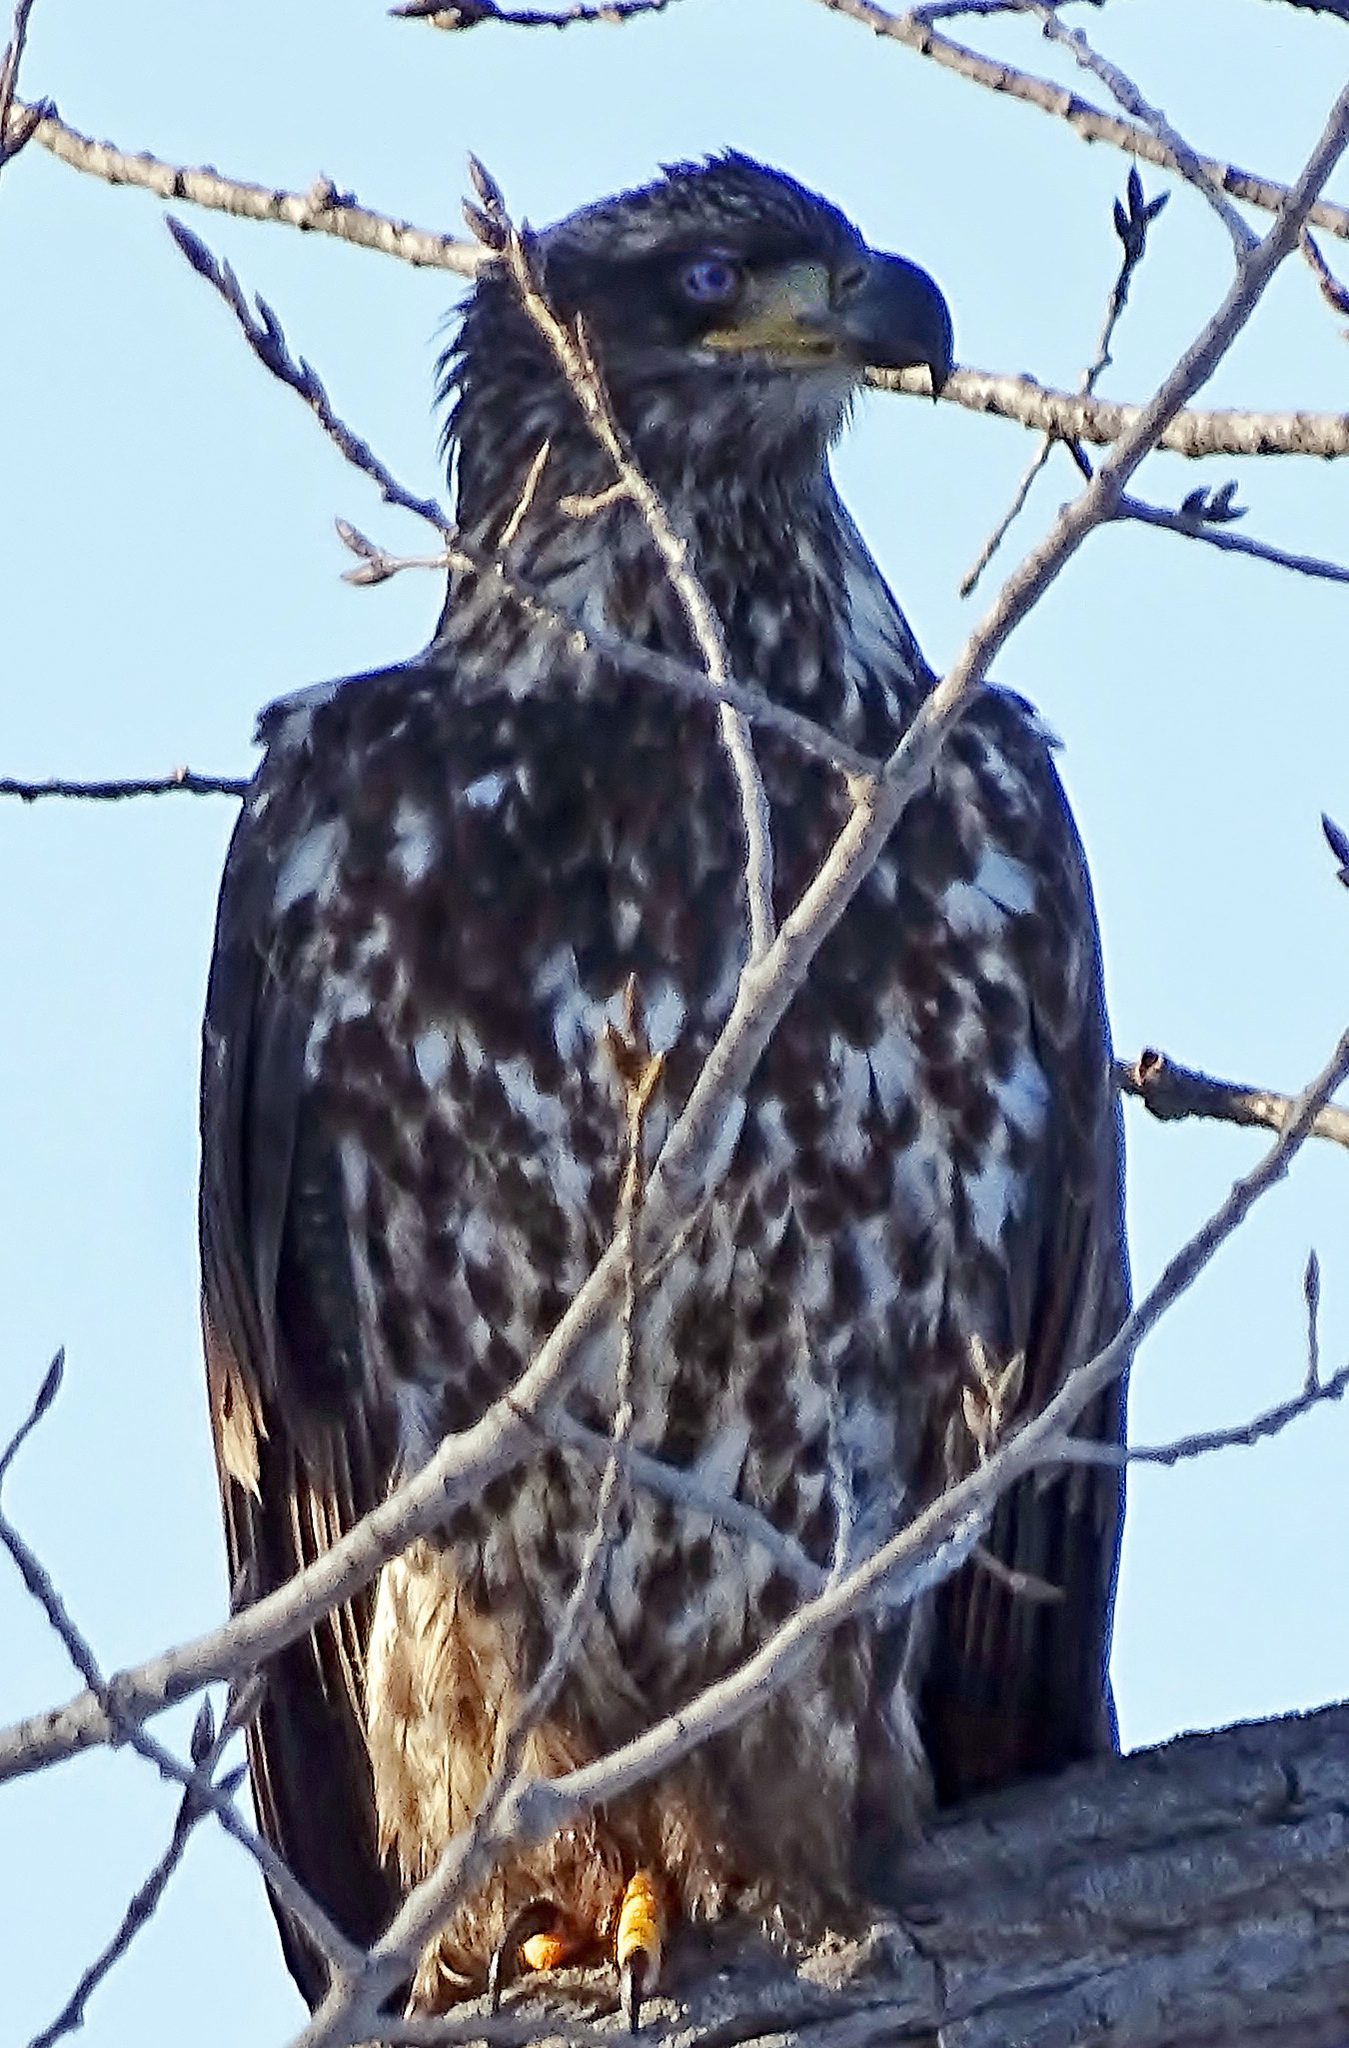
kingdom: Animalia
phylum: Chordata
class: Aves
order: Accipitriformes
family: Accipitridae
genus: Haliaeetus
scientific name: Haliaeetus leucocephalus
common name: Bald eagle
